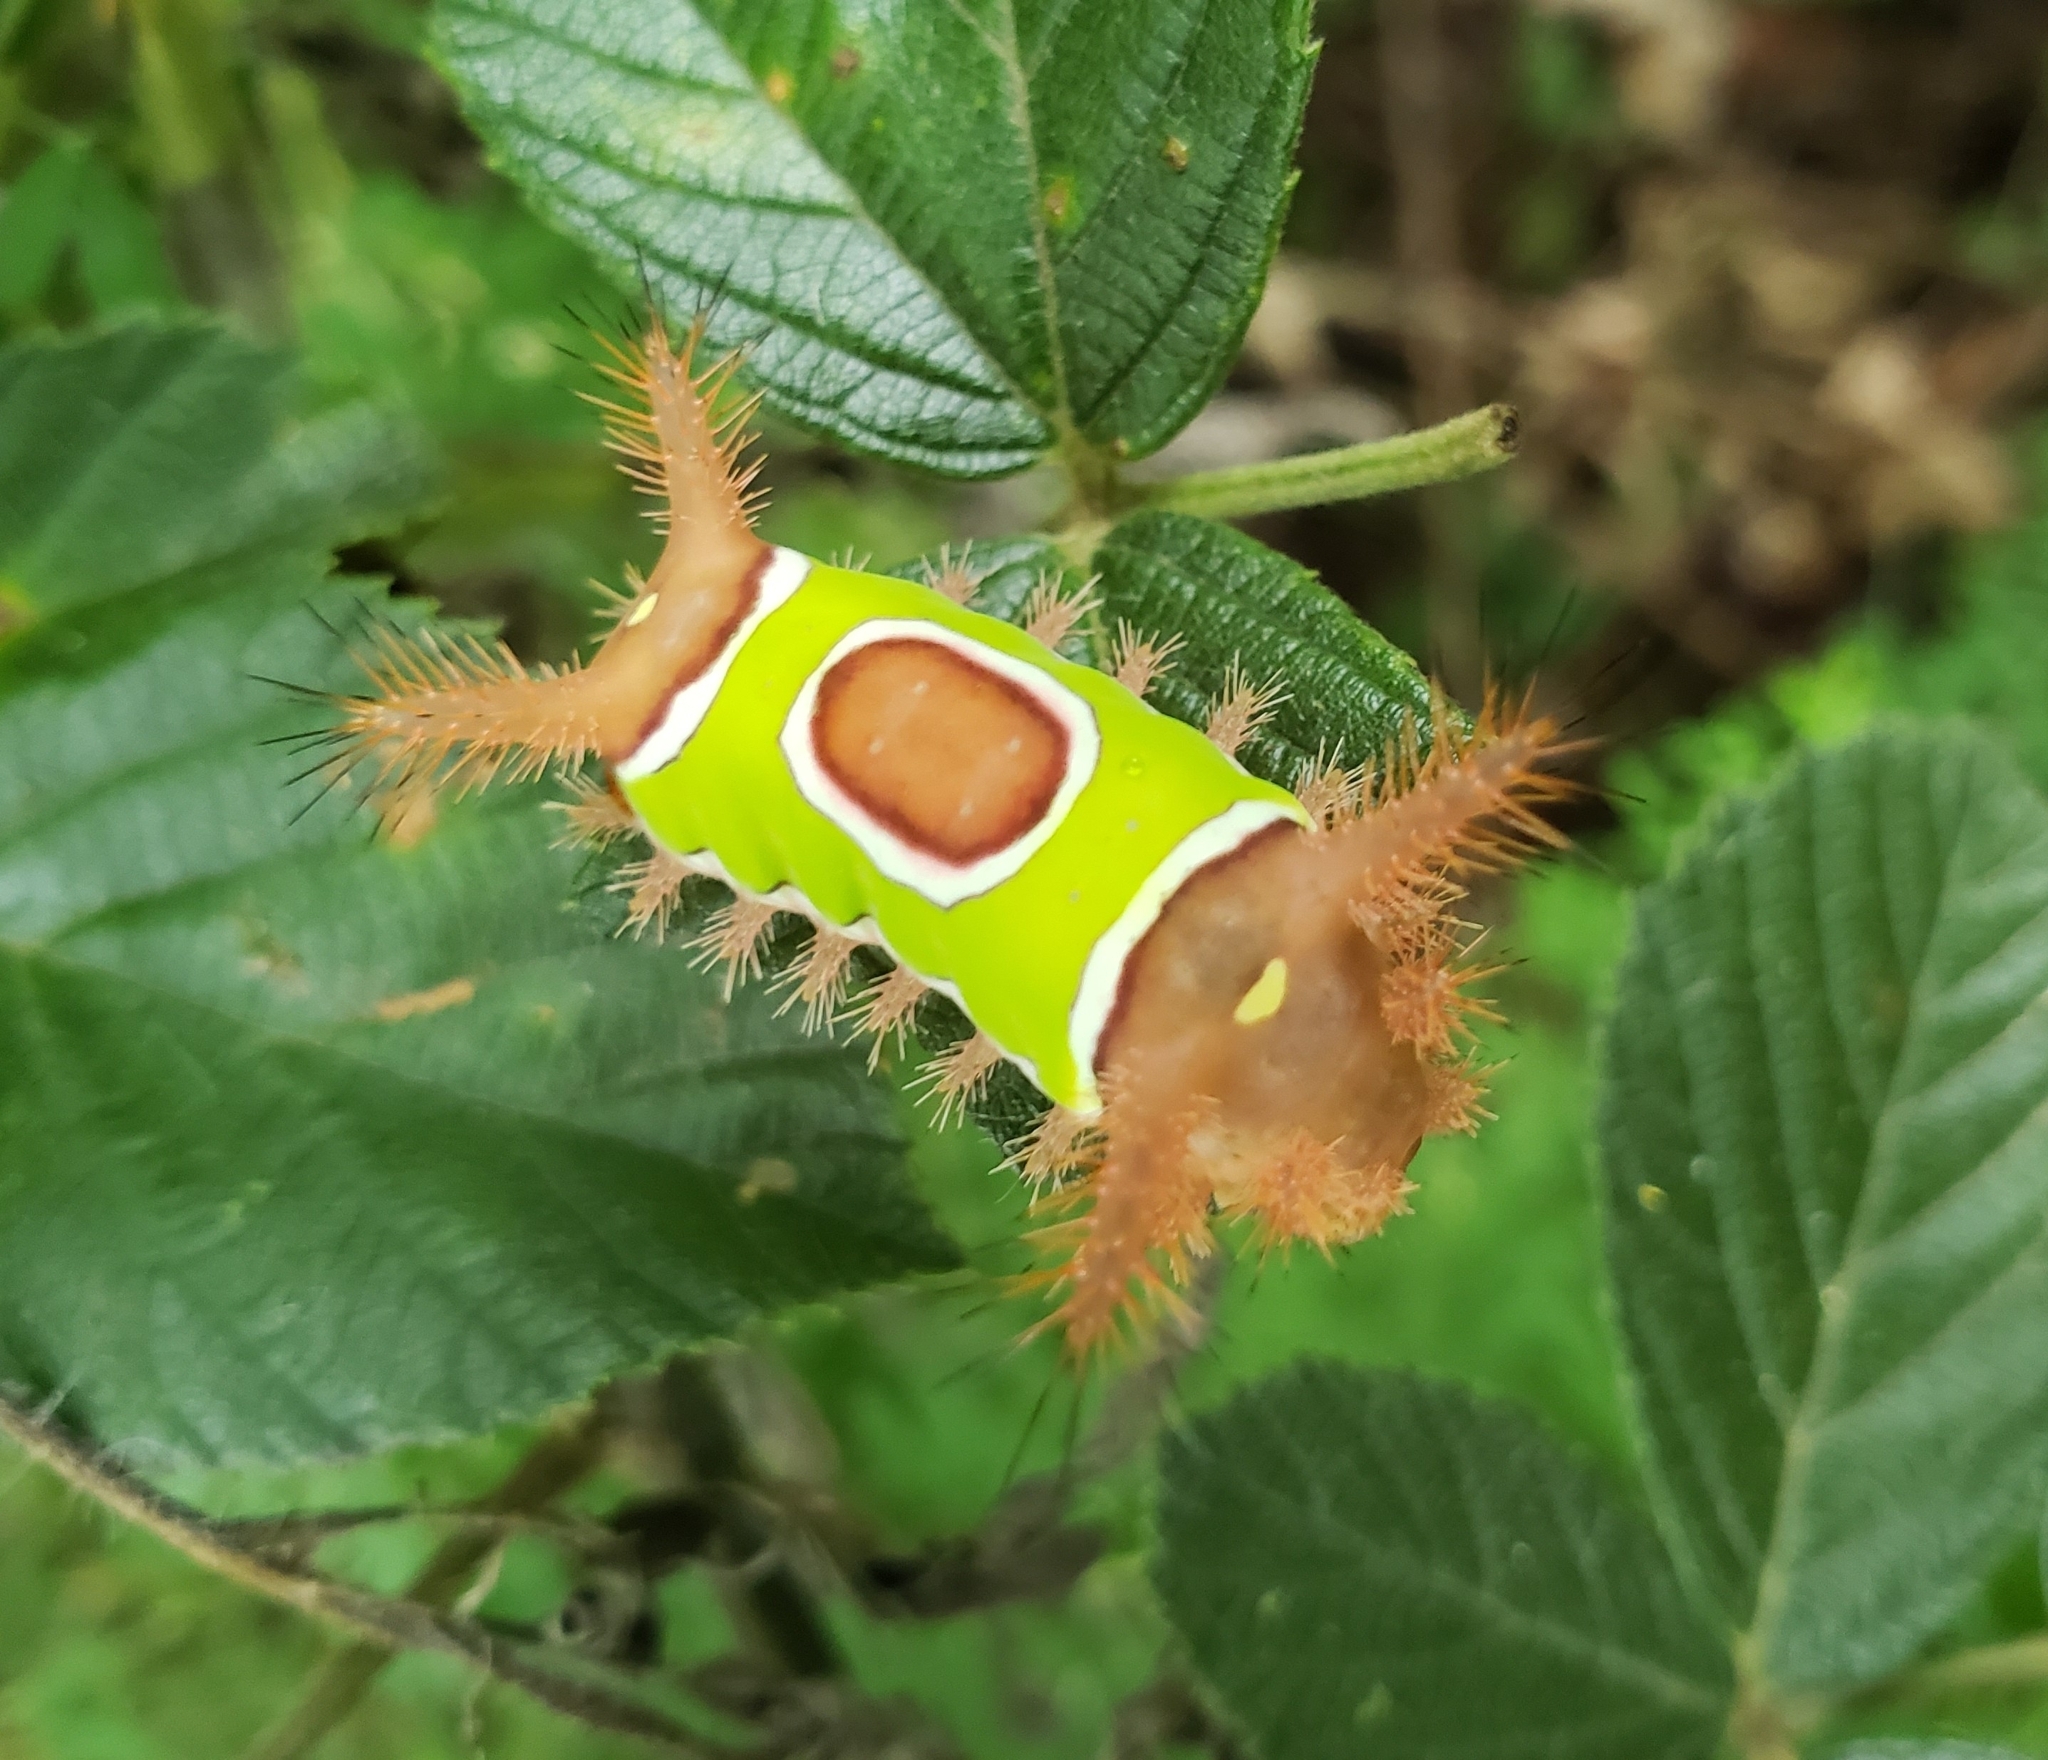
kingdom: Animalia
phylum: Arthropoda
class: Insecta
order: Lepidoptera
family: Limacodidae
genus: Acharia
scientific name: Acharia stimulea
